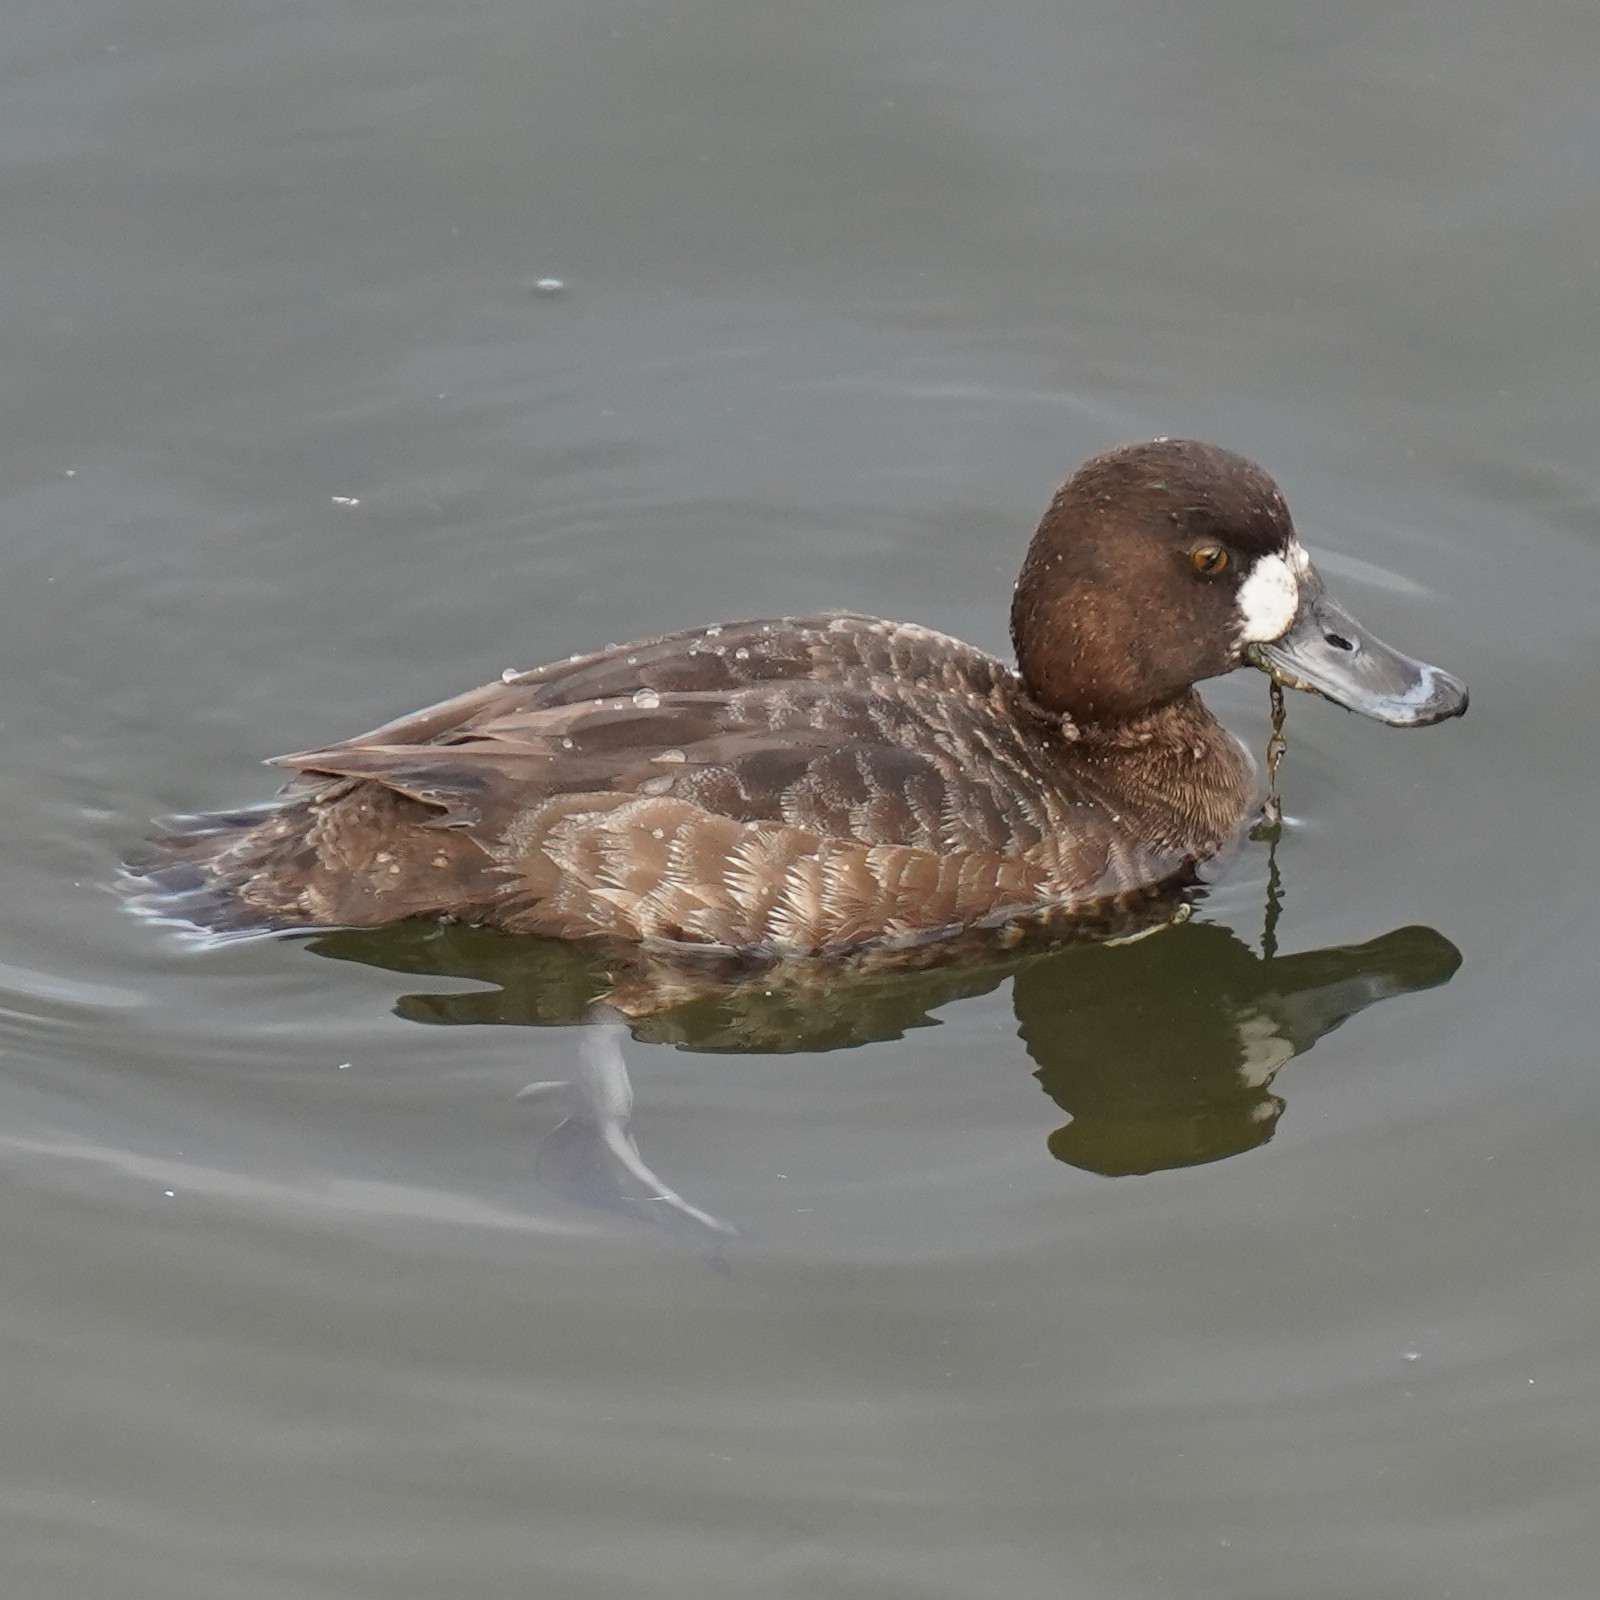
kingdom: Animalia
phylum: Chordata
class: Aves
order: Anseriformes
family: Anatidae
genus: Aythya
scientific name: Aythya marila
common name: Greater scaup
